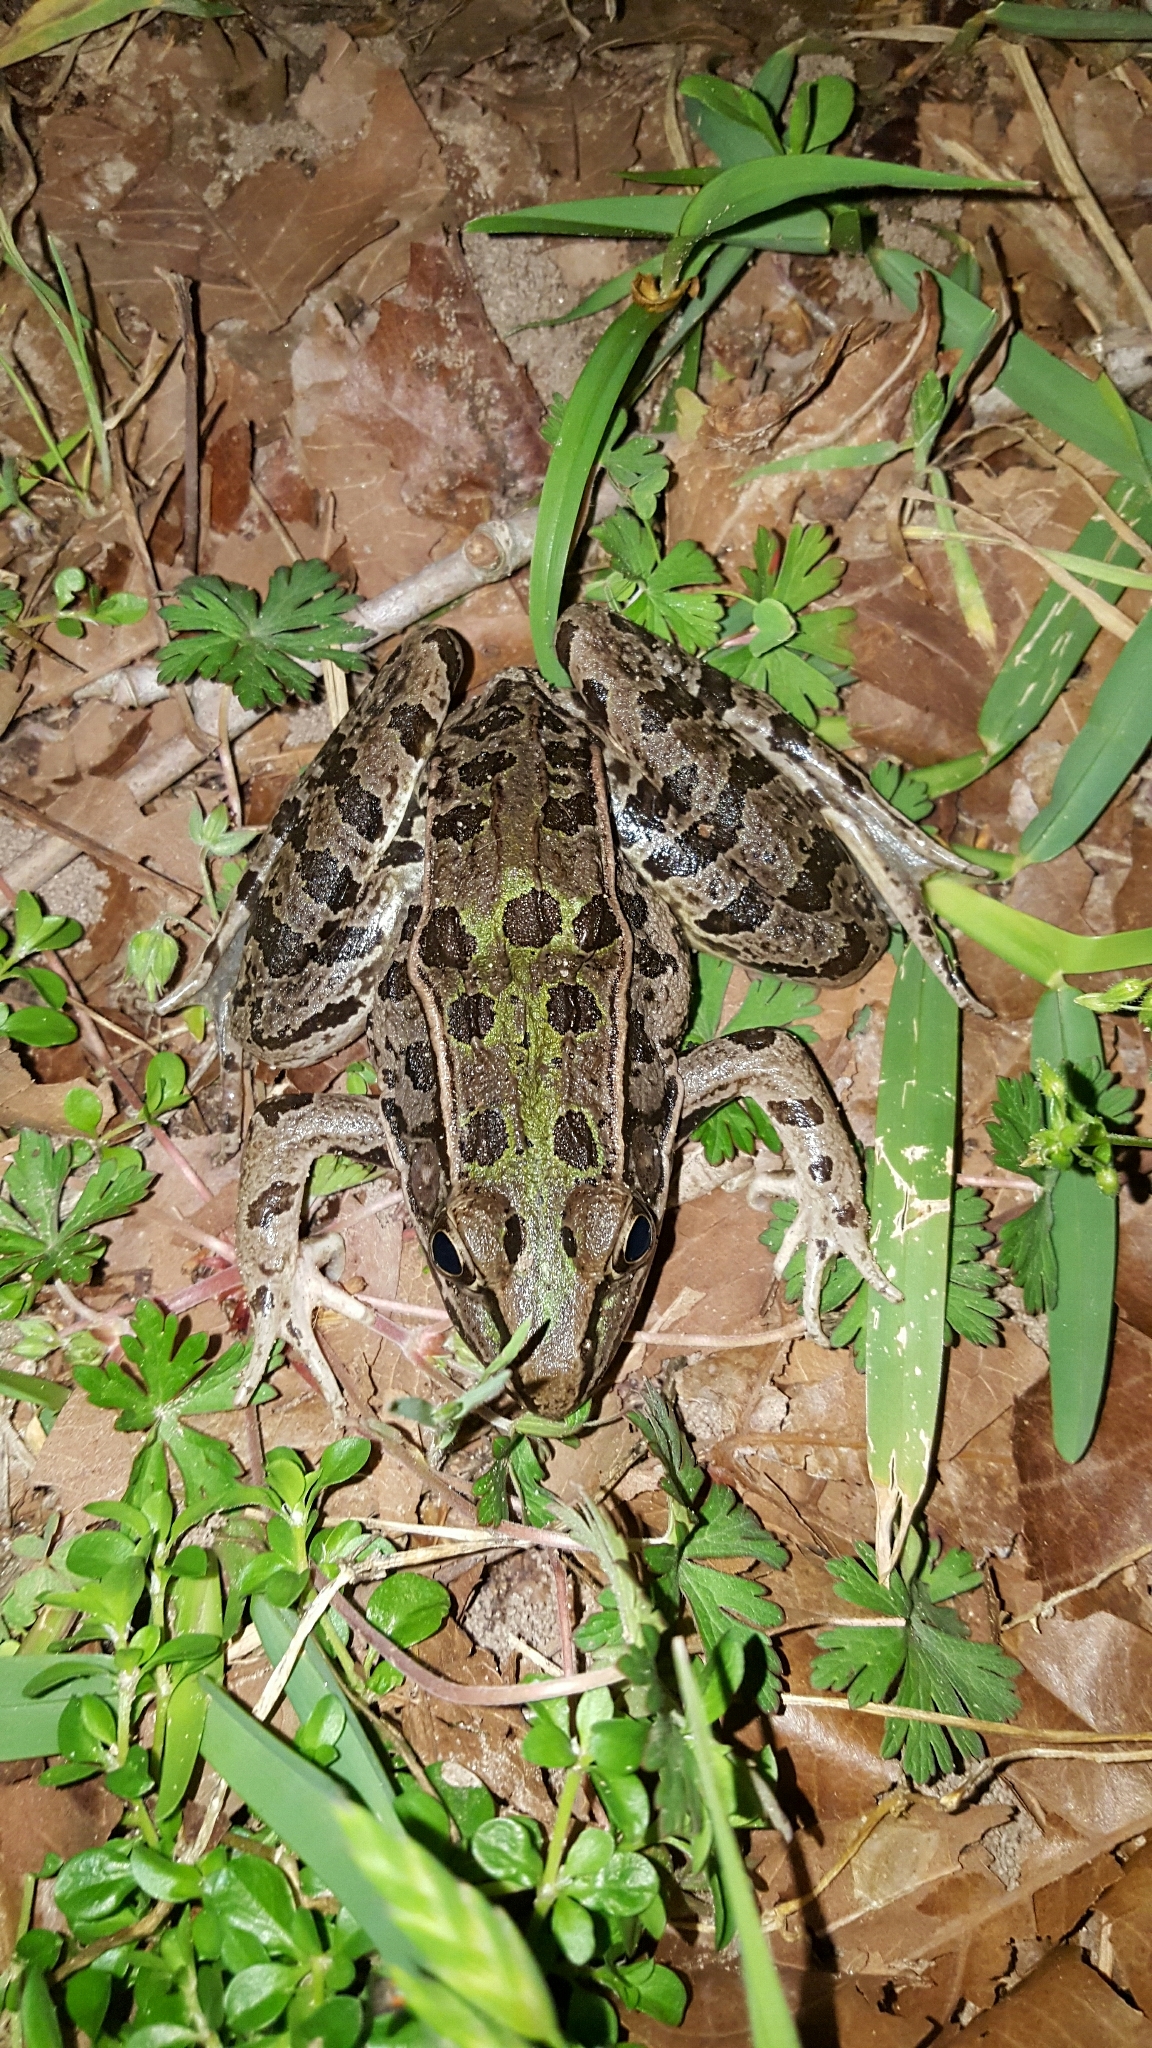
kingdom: Animalia
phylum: Chordata
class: Amphibia
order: Anura
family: Ranidae
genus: Lithobates
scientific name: Lithobates sphenocephalus
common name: Southern leopard frog
